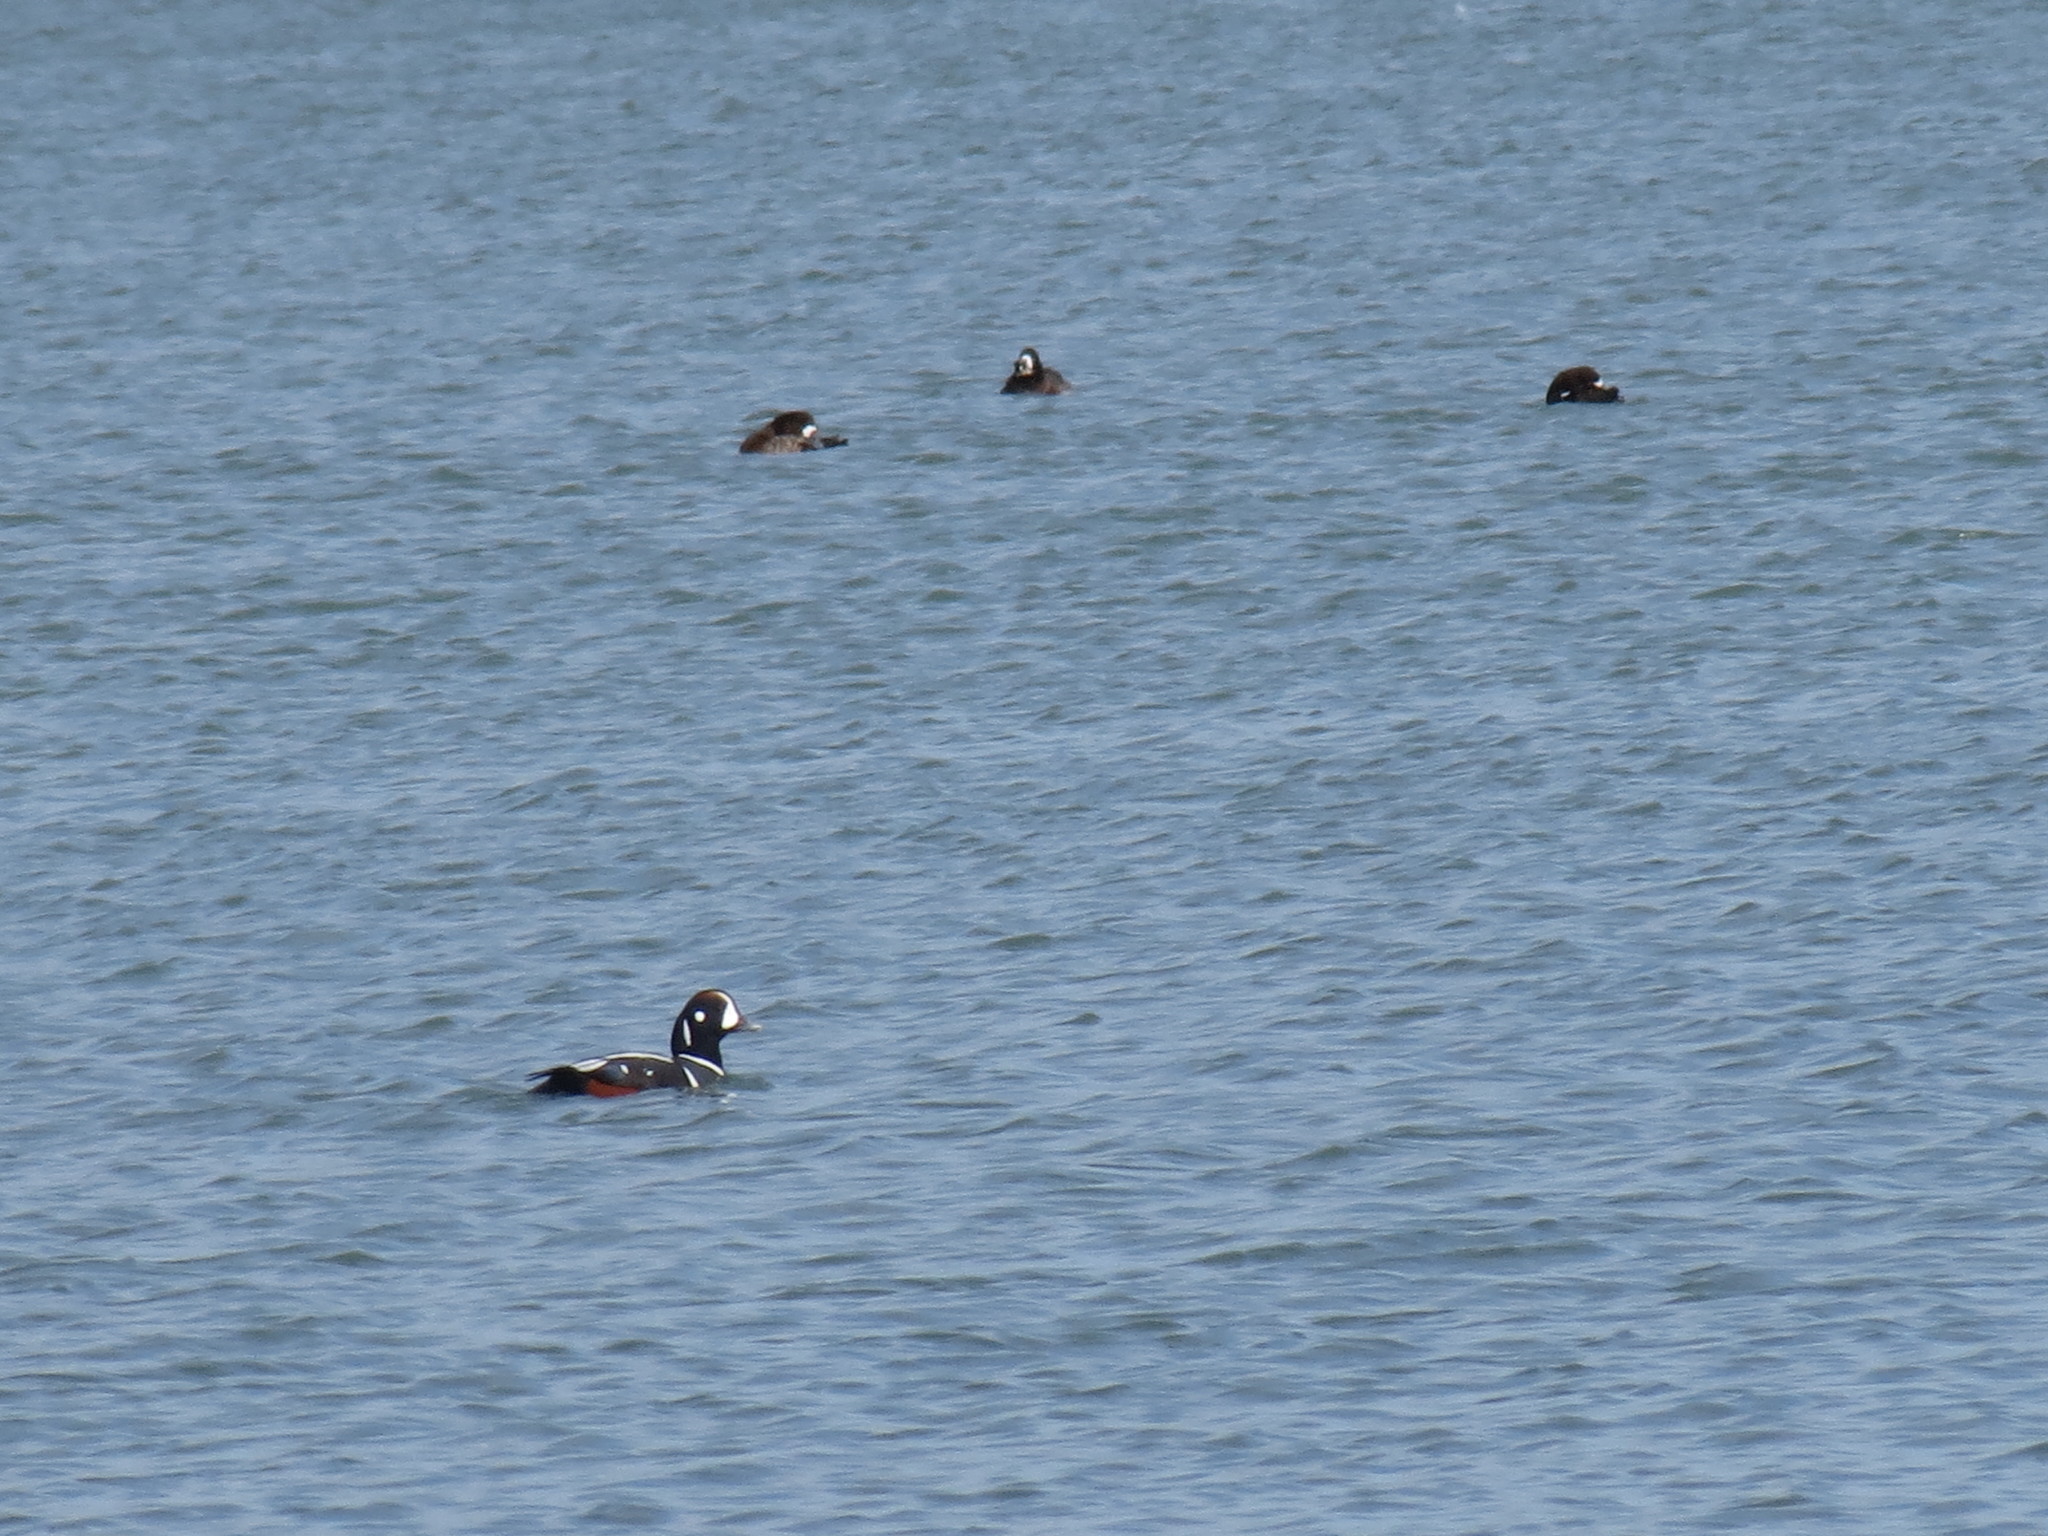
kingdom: Animalia
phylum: Chordata
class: Aves
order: Anseriformes
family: Anatidae
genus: Histrionicus
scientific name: Histrionicus histrionicus
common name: Harlequin duck
